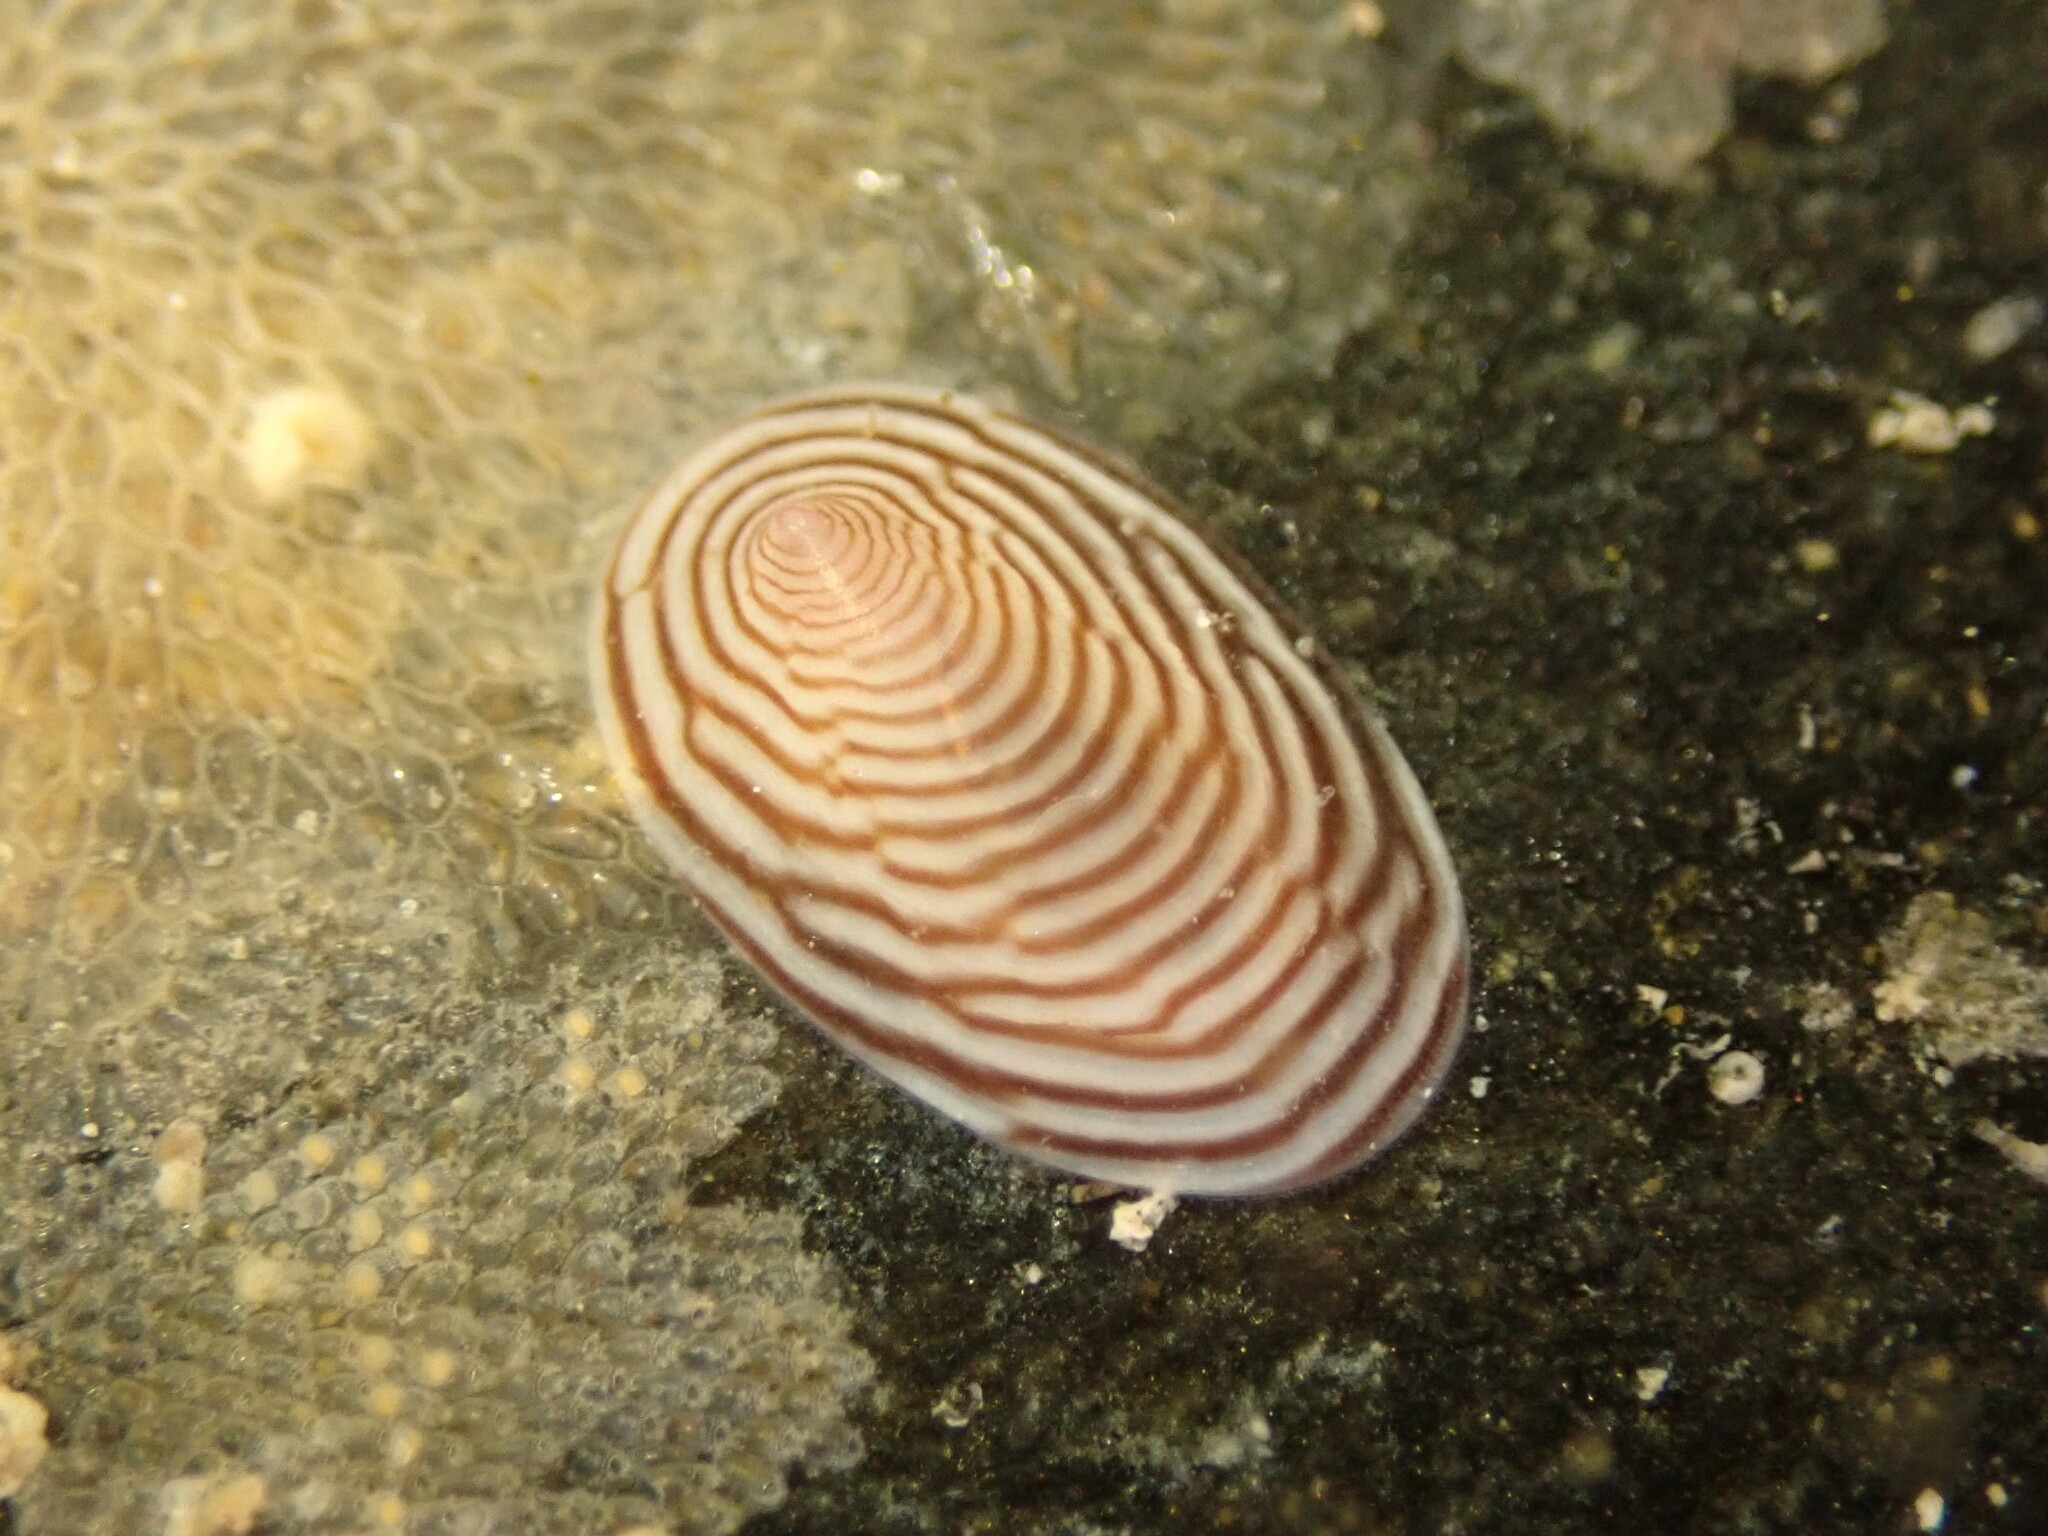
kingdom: Animalia
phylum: Mollusca
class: Gastropoda
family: Lottiidae
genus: Atalacmea
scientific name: Atalacmea multilinea
